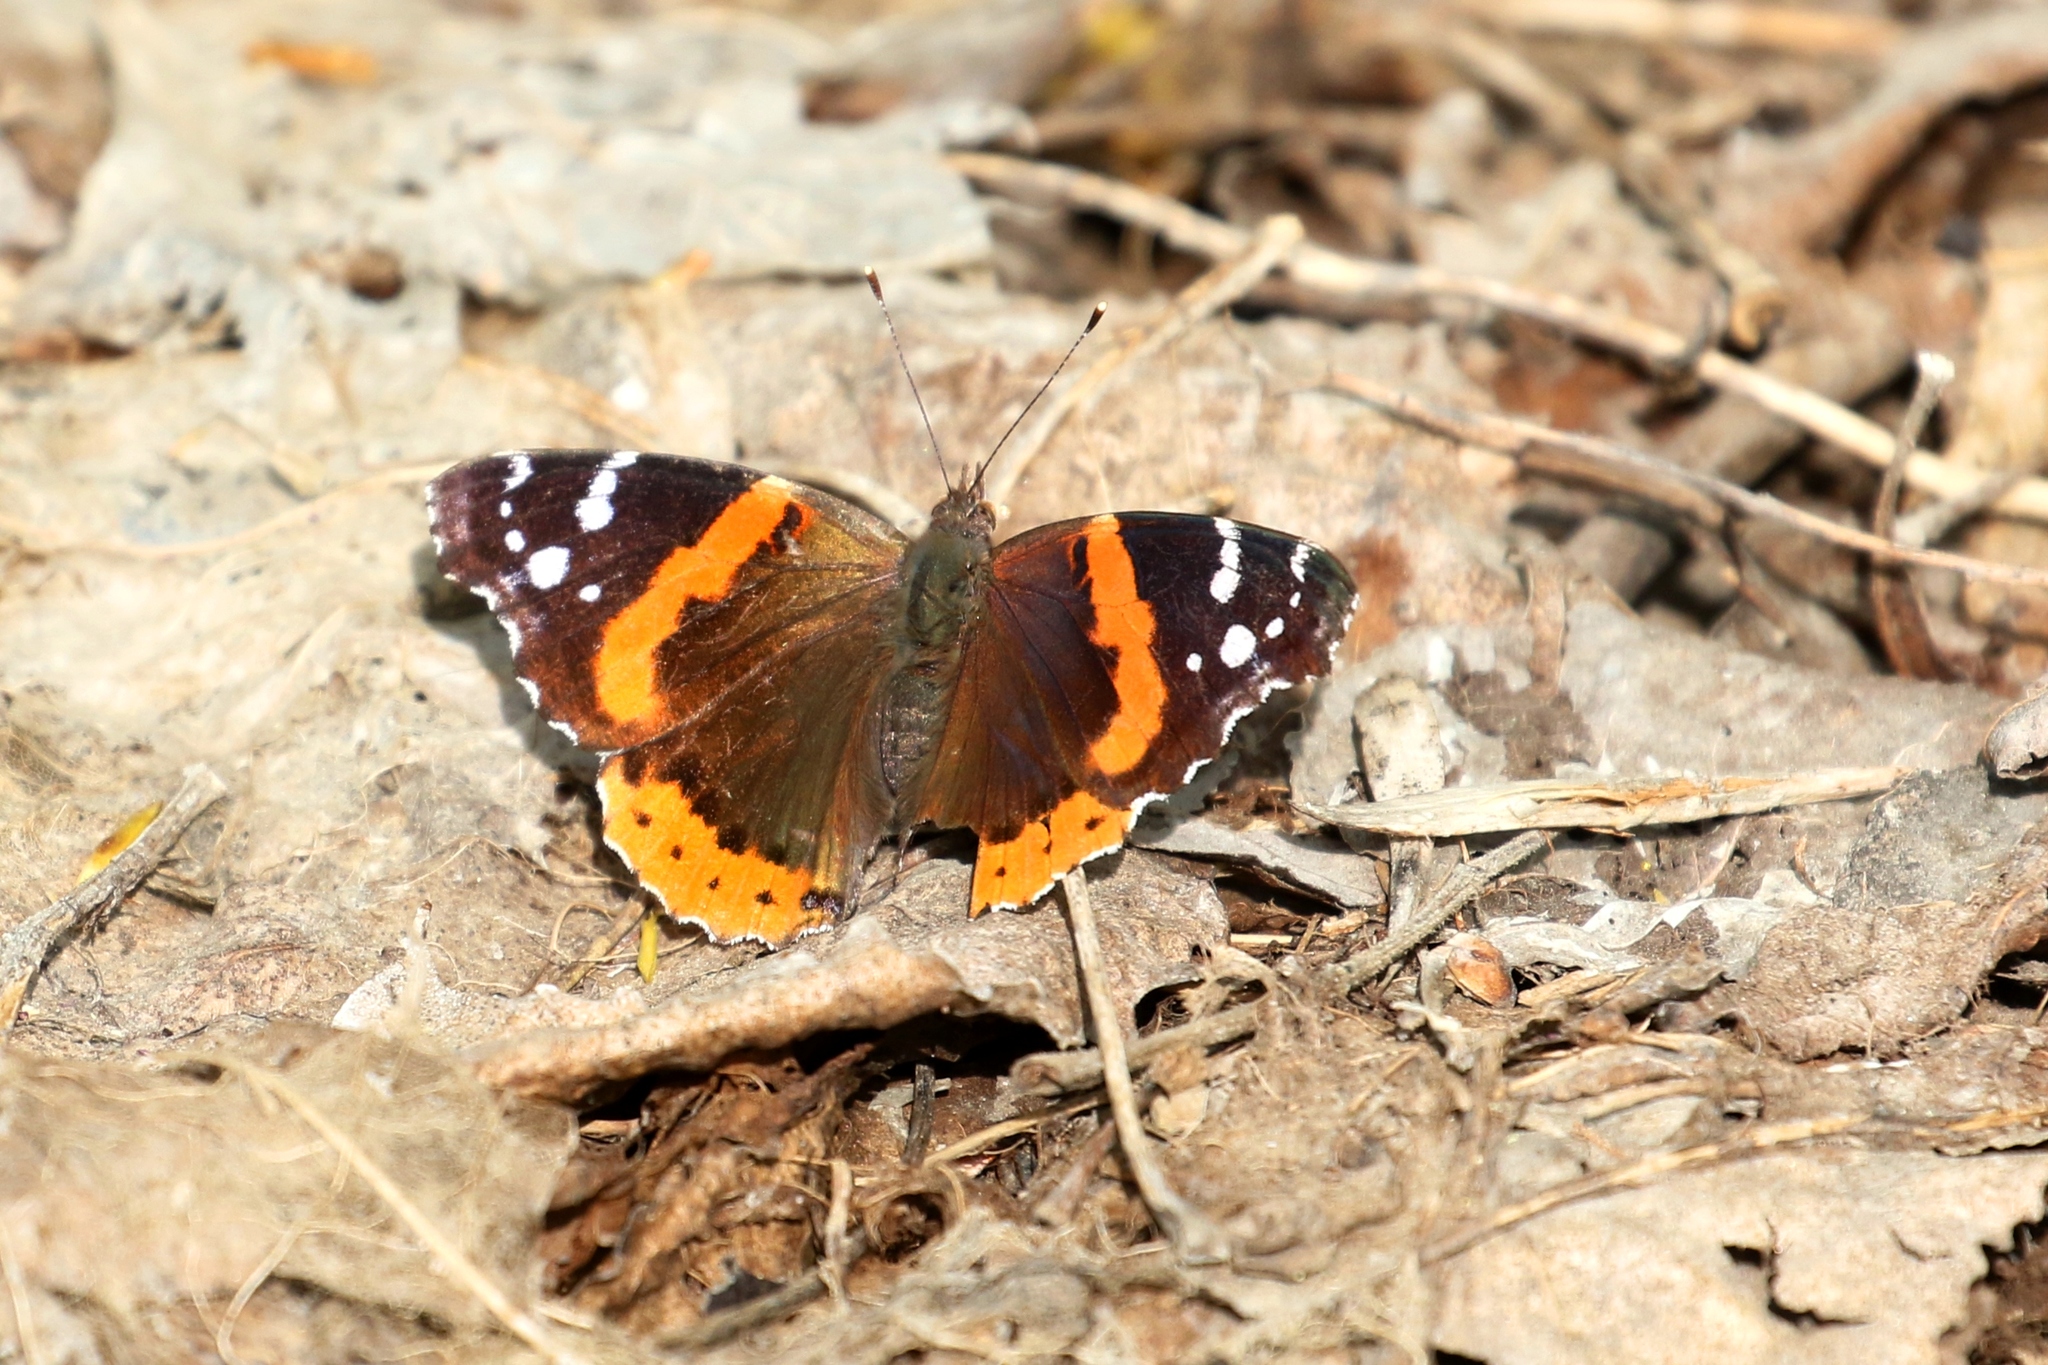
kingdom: Animalia
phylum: Arthropoda
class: Insecta
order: Lepidoptera
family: Nymphalidae
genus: Vanessa
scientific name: Vanessa atalanta
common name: Red admiral
